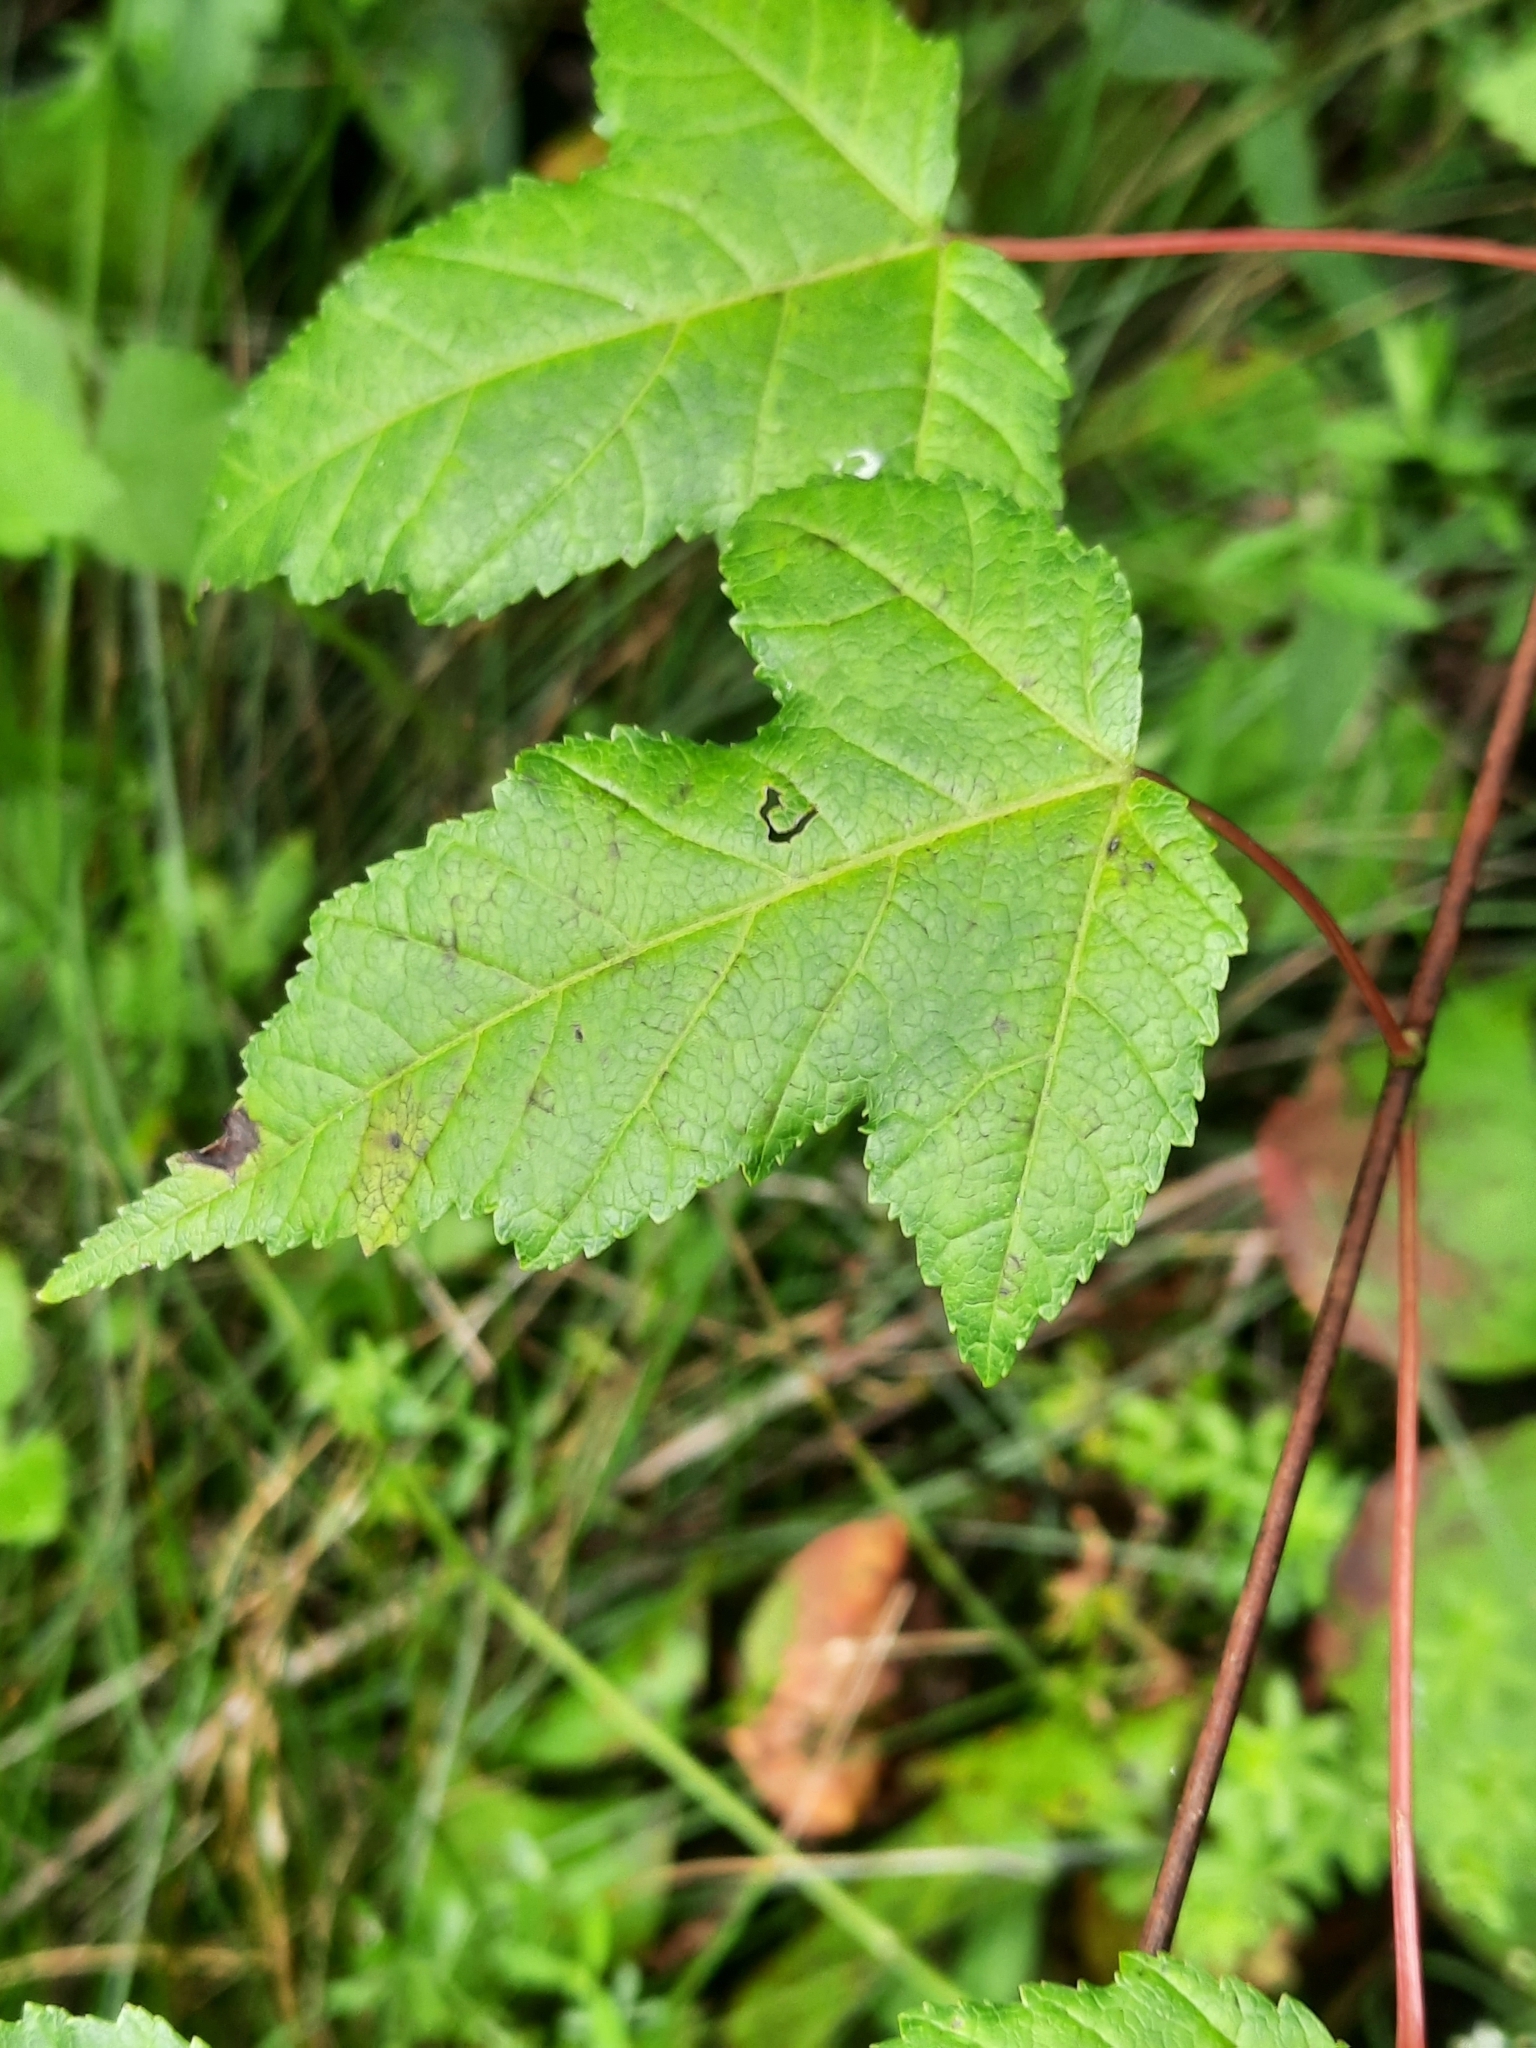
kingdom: Plantae
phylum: Tracheophyta
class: Magnoliopsida
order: Sapindales
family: Sapindaceae
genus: Acer
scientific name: Acer tataricum
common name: Tartar maple
